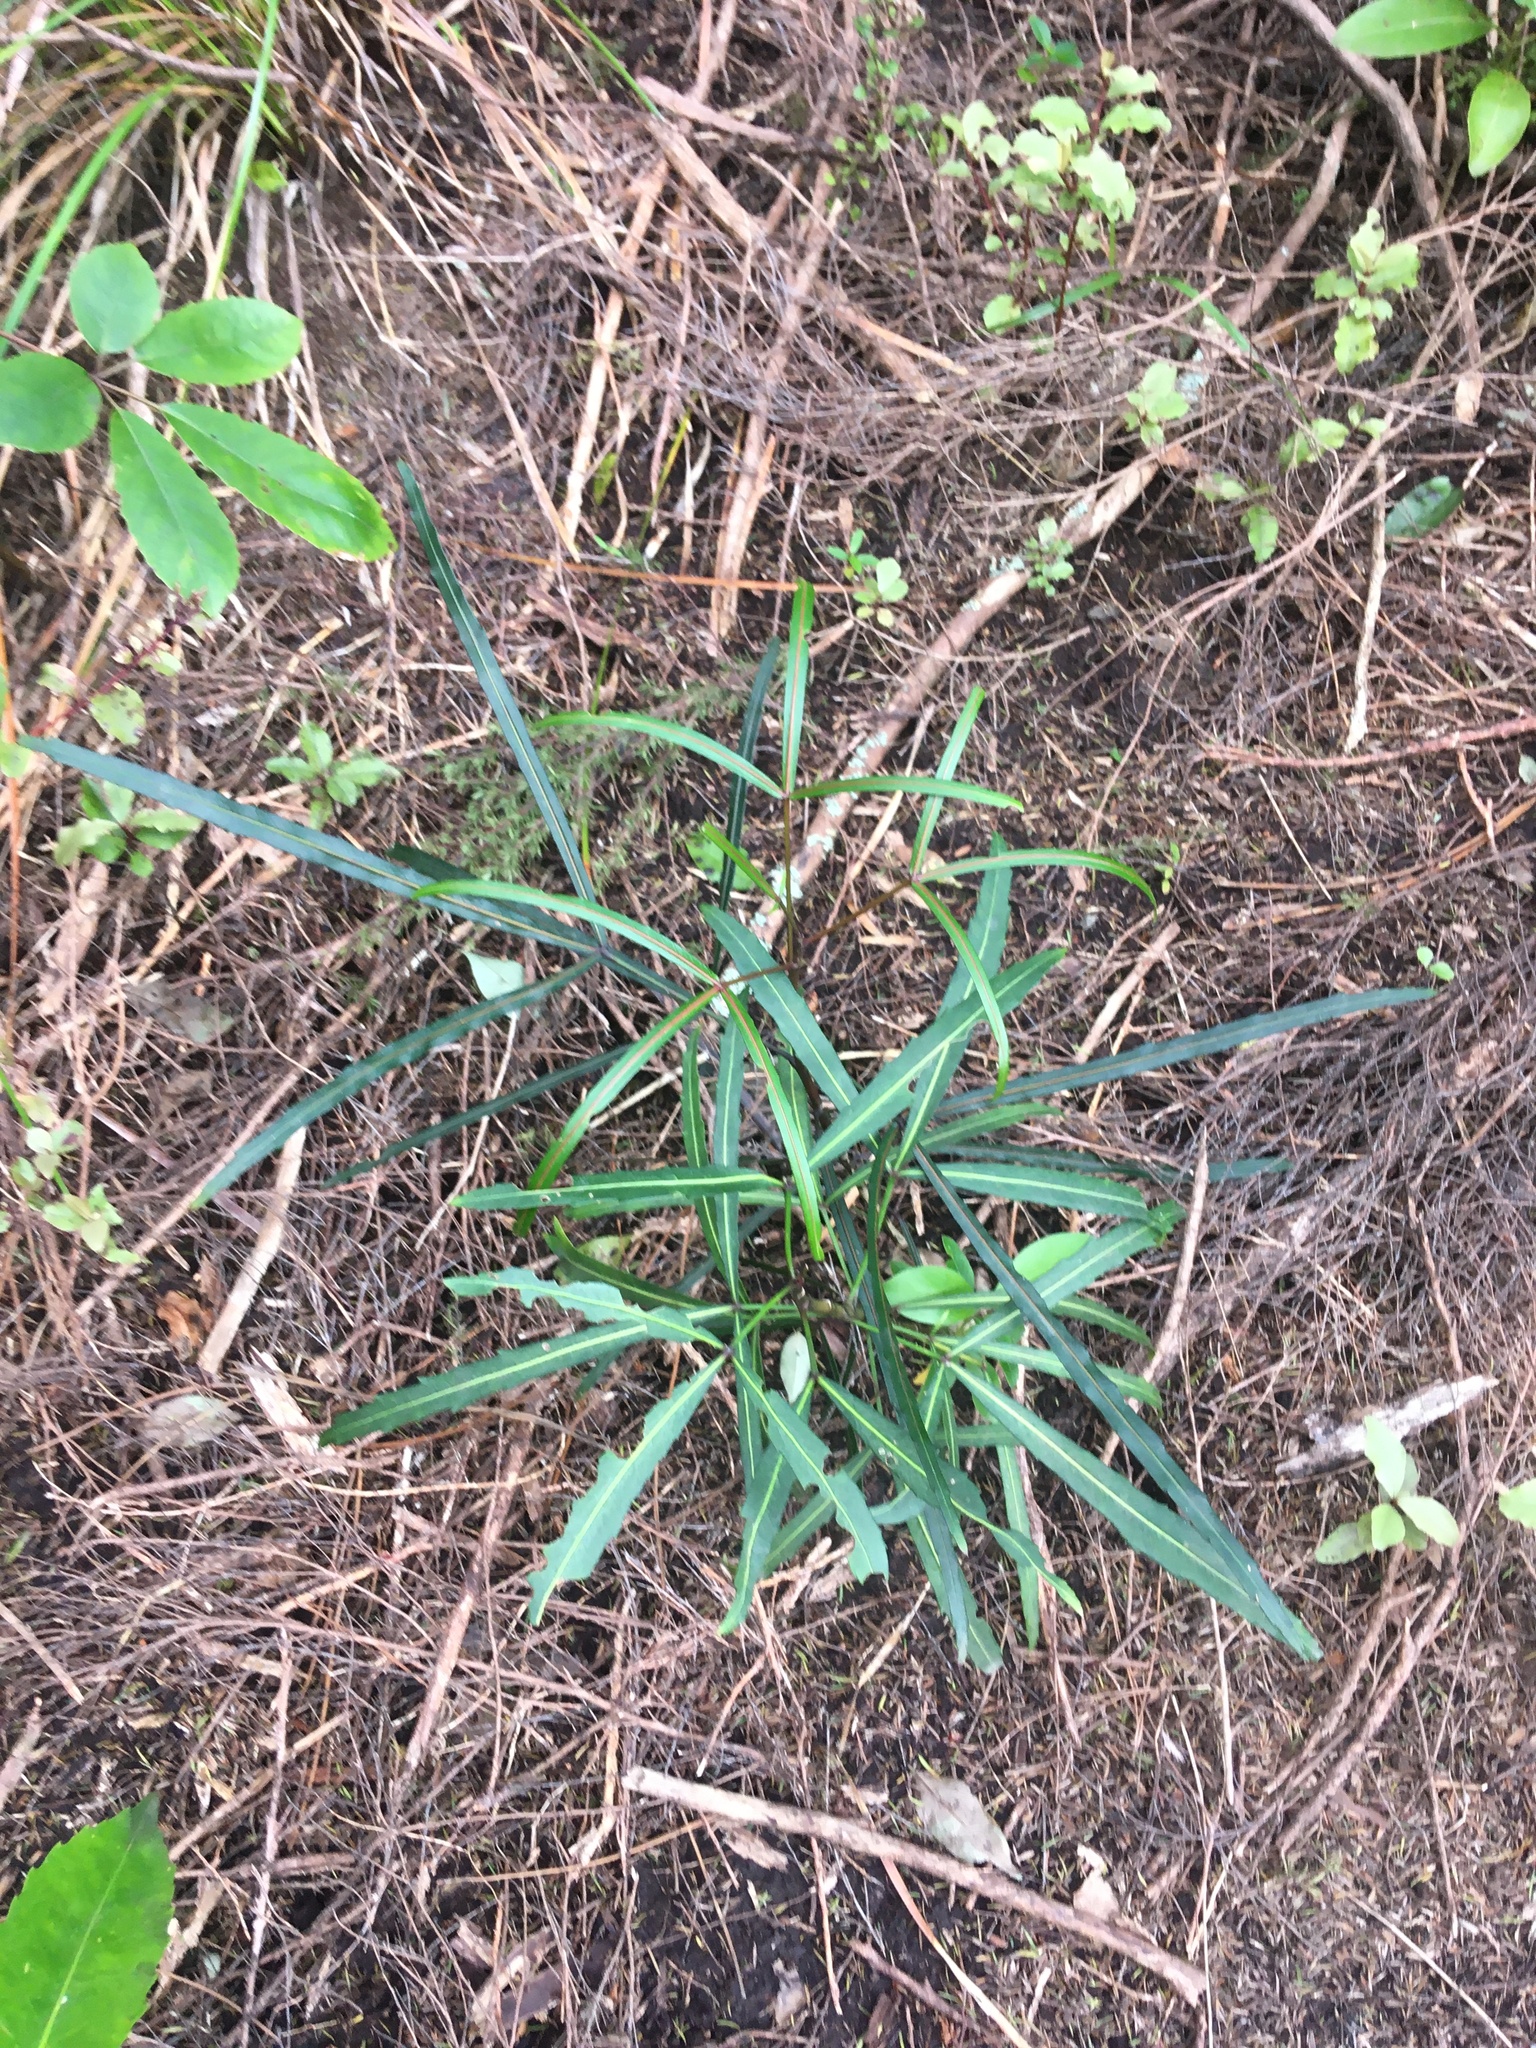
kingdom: Plantae
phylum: Tracheophyta
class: Magnoliopsida
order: Apiales
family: Araliaceae
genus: Pseudopanax
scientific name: Pseudopanax
